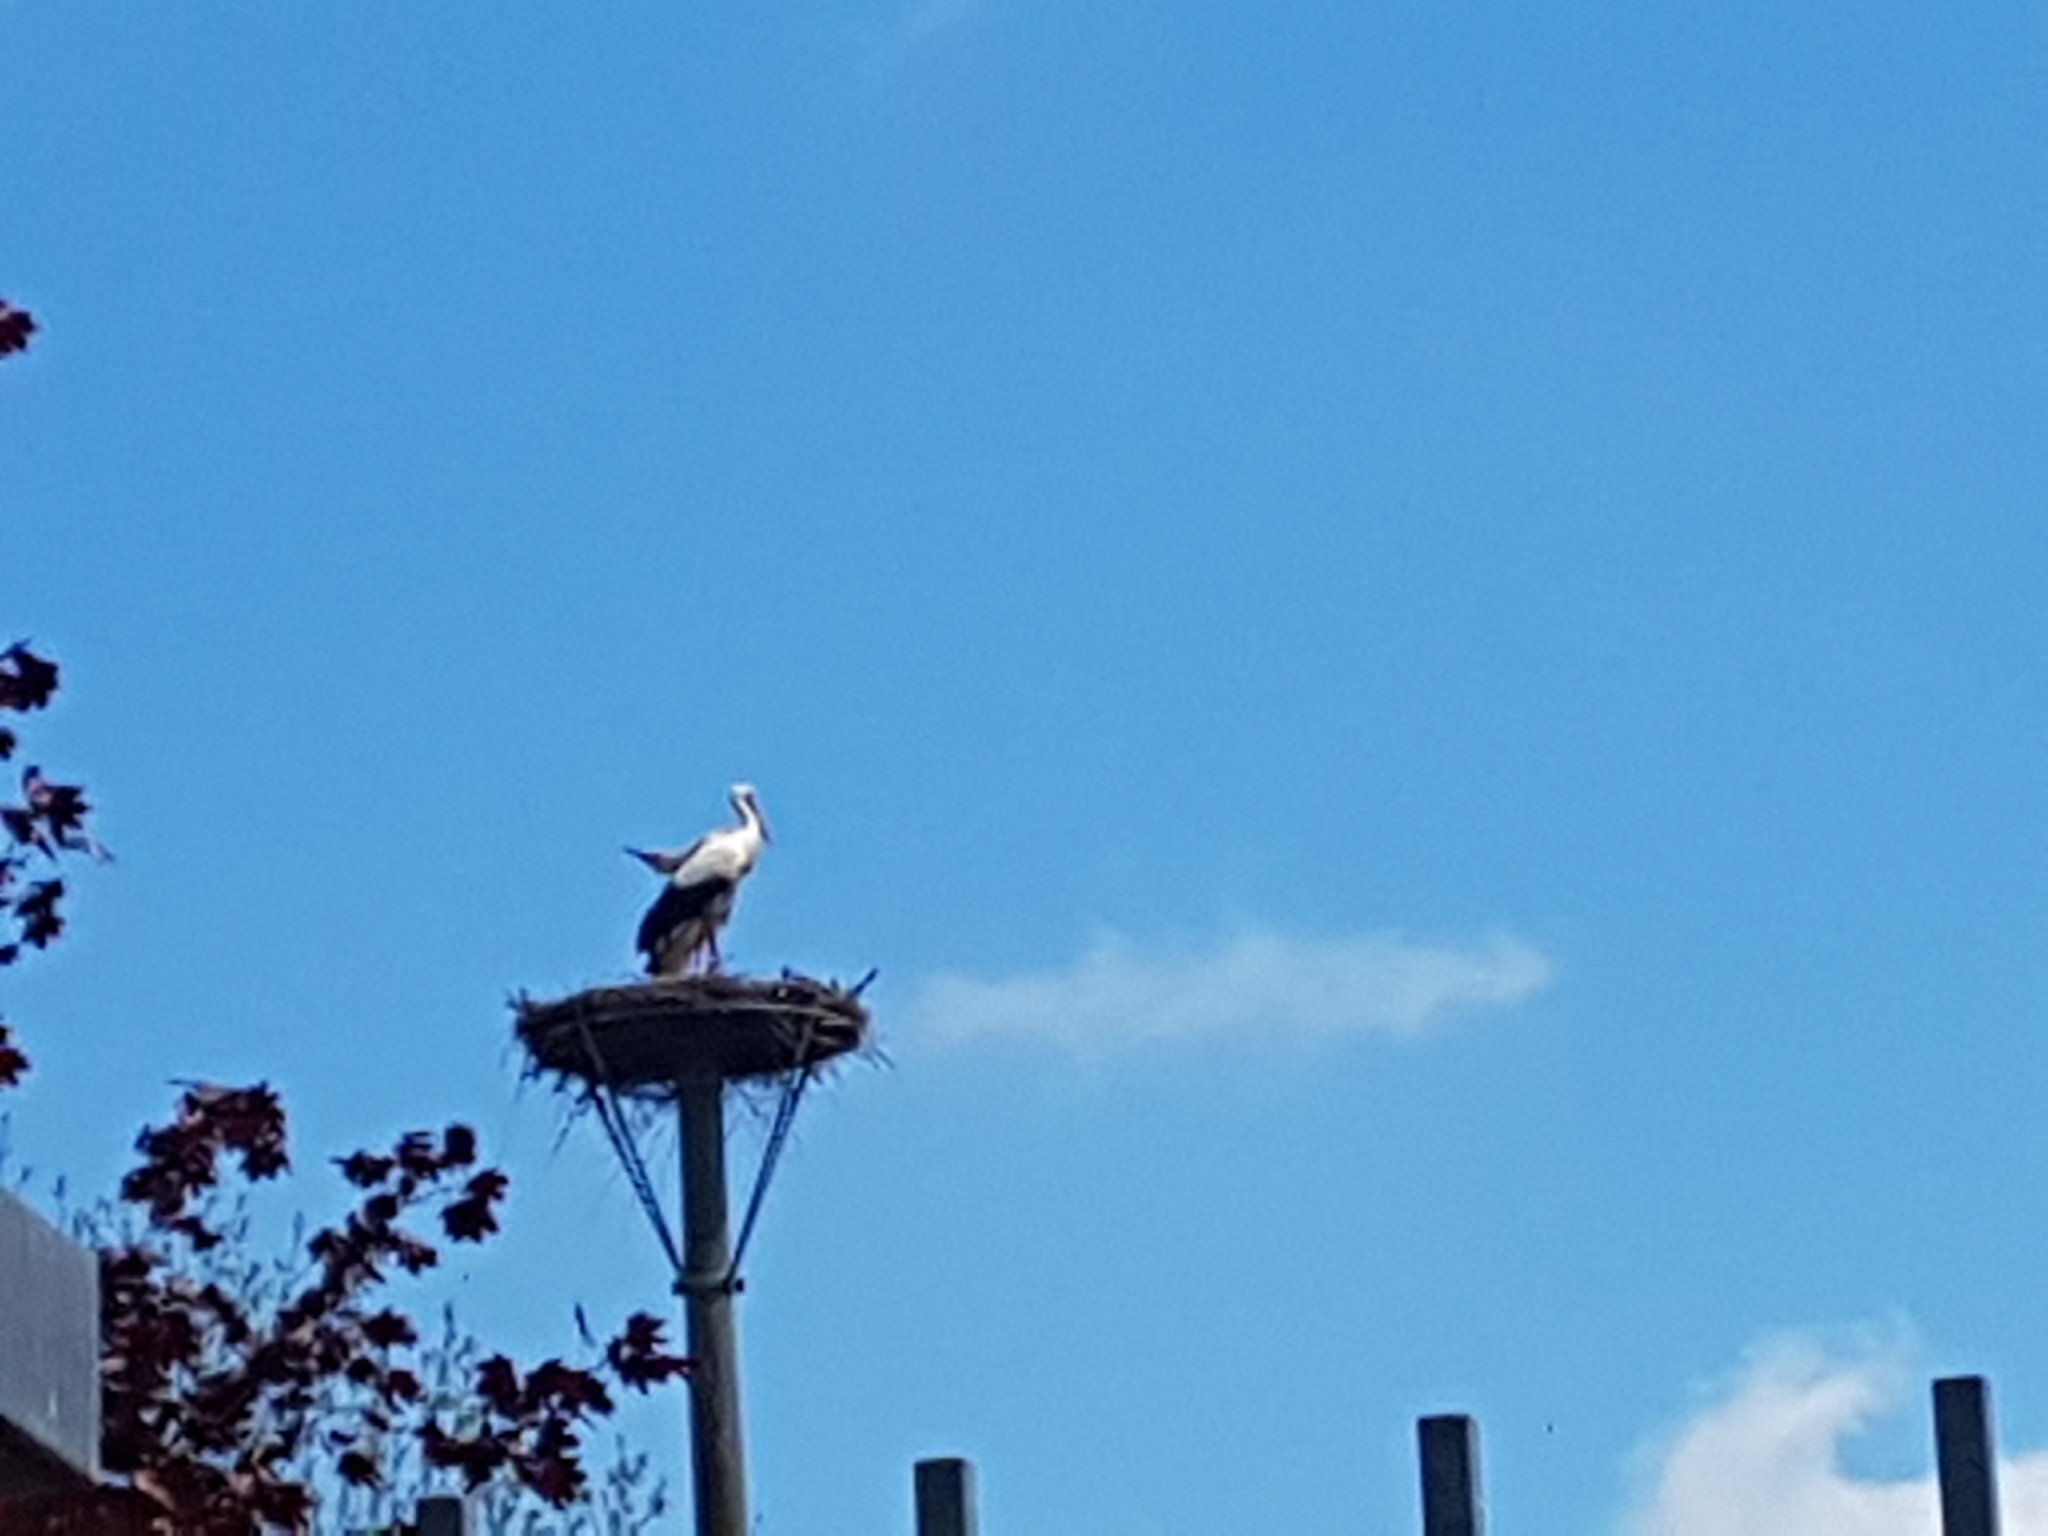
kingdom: Animalia
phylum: Chordata
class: Aves
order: Ciconiiformes
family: Ciconiidae
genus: Ciconia
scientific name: Ciconia ciconia
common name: White stork
